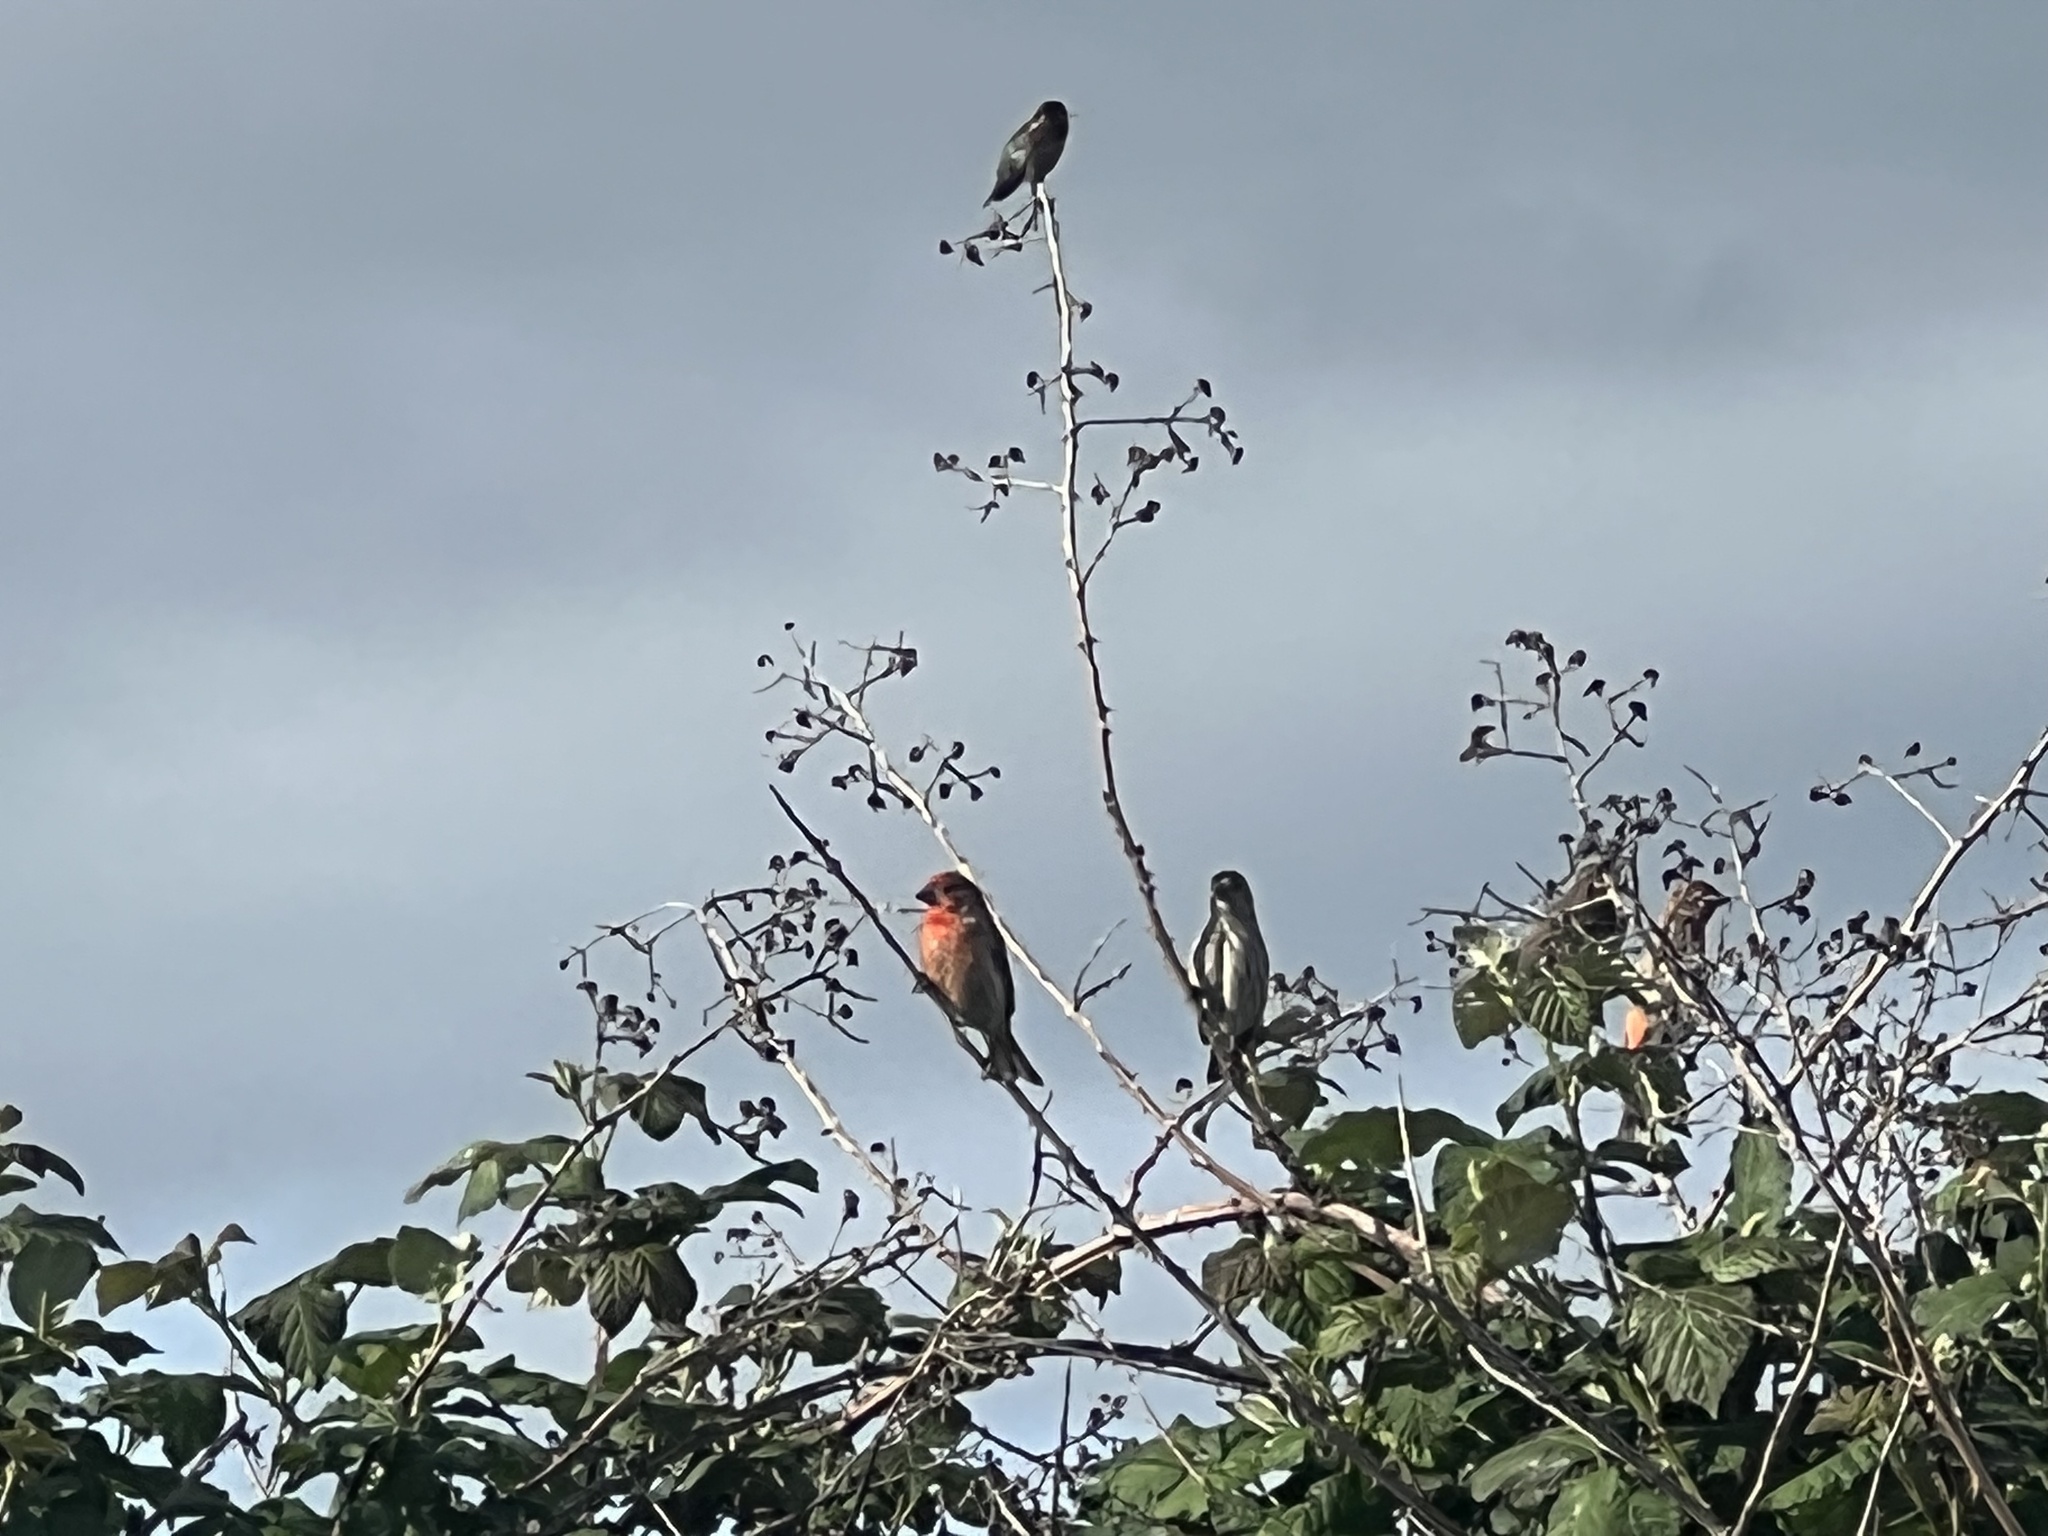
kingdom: Animalia
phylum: Chordata
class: Aves
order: Apodiformes
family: Trochilidae
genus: Calypte
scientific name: Calypte anna
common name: Anna's hummingbird
